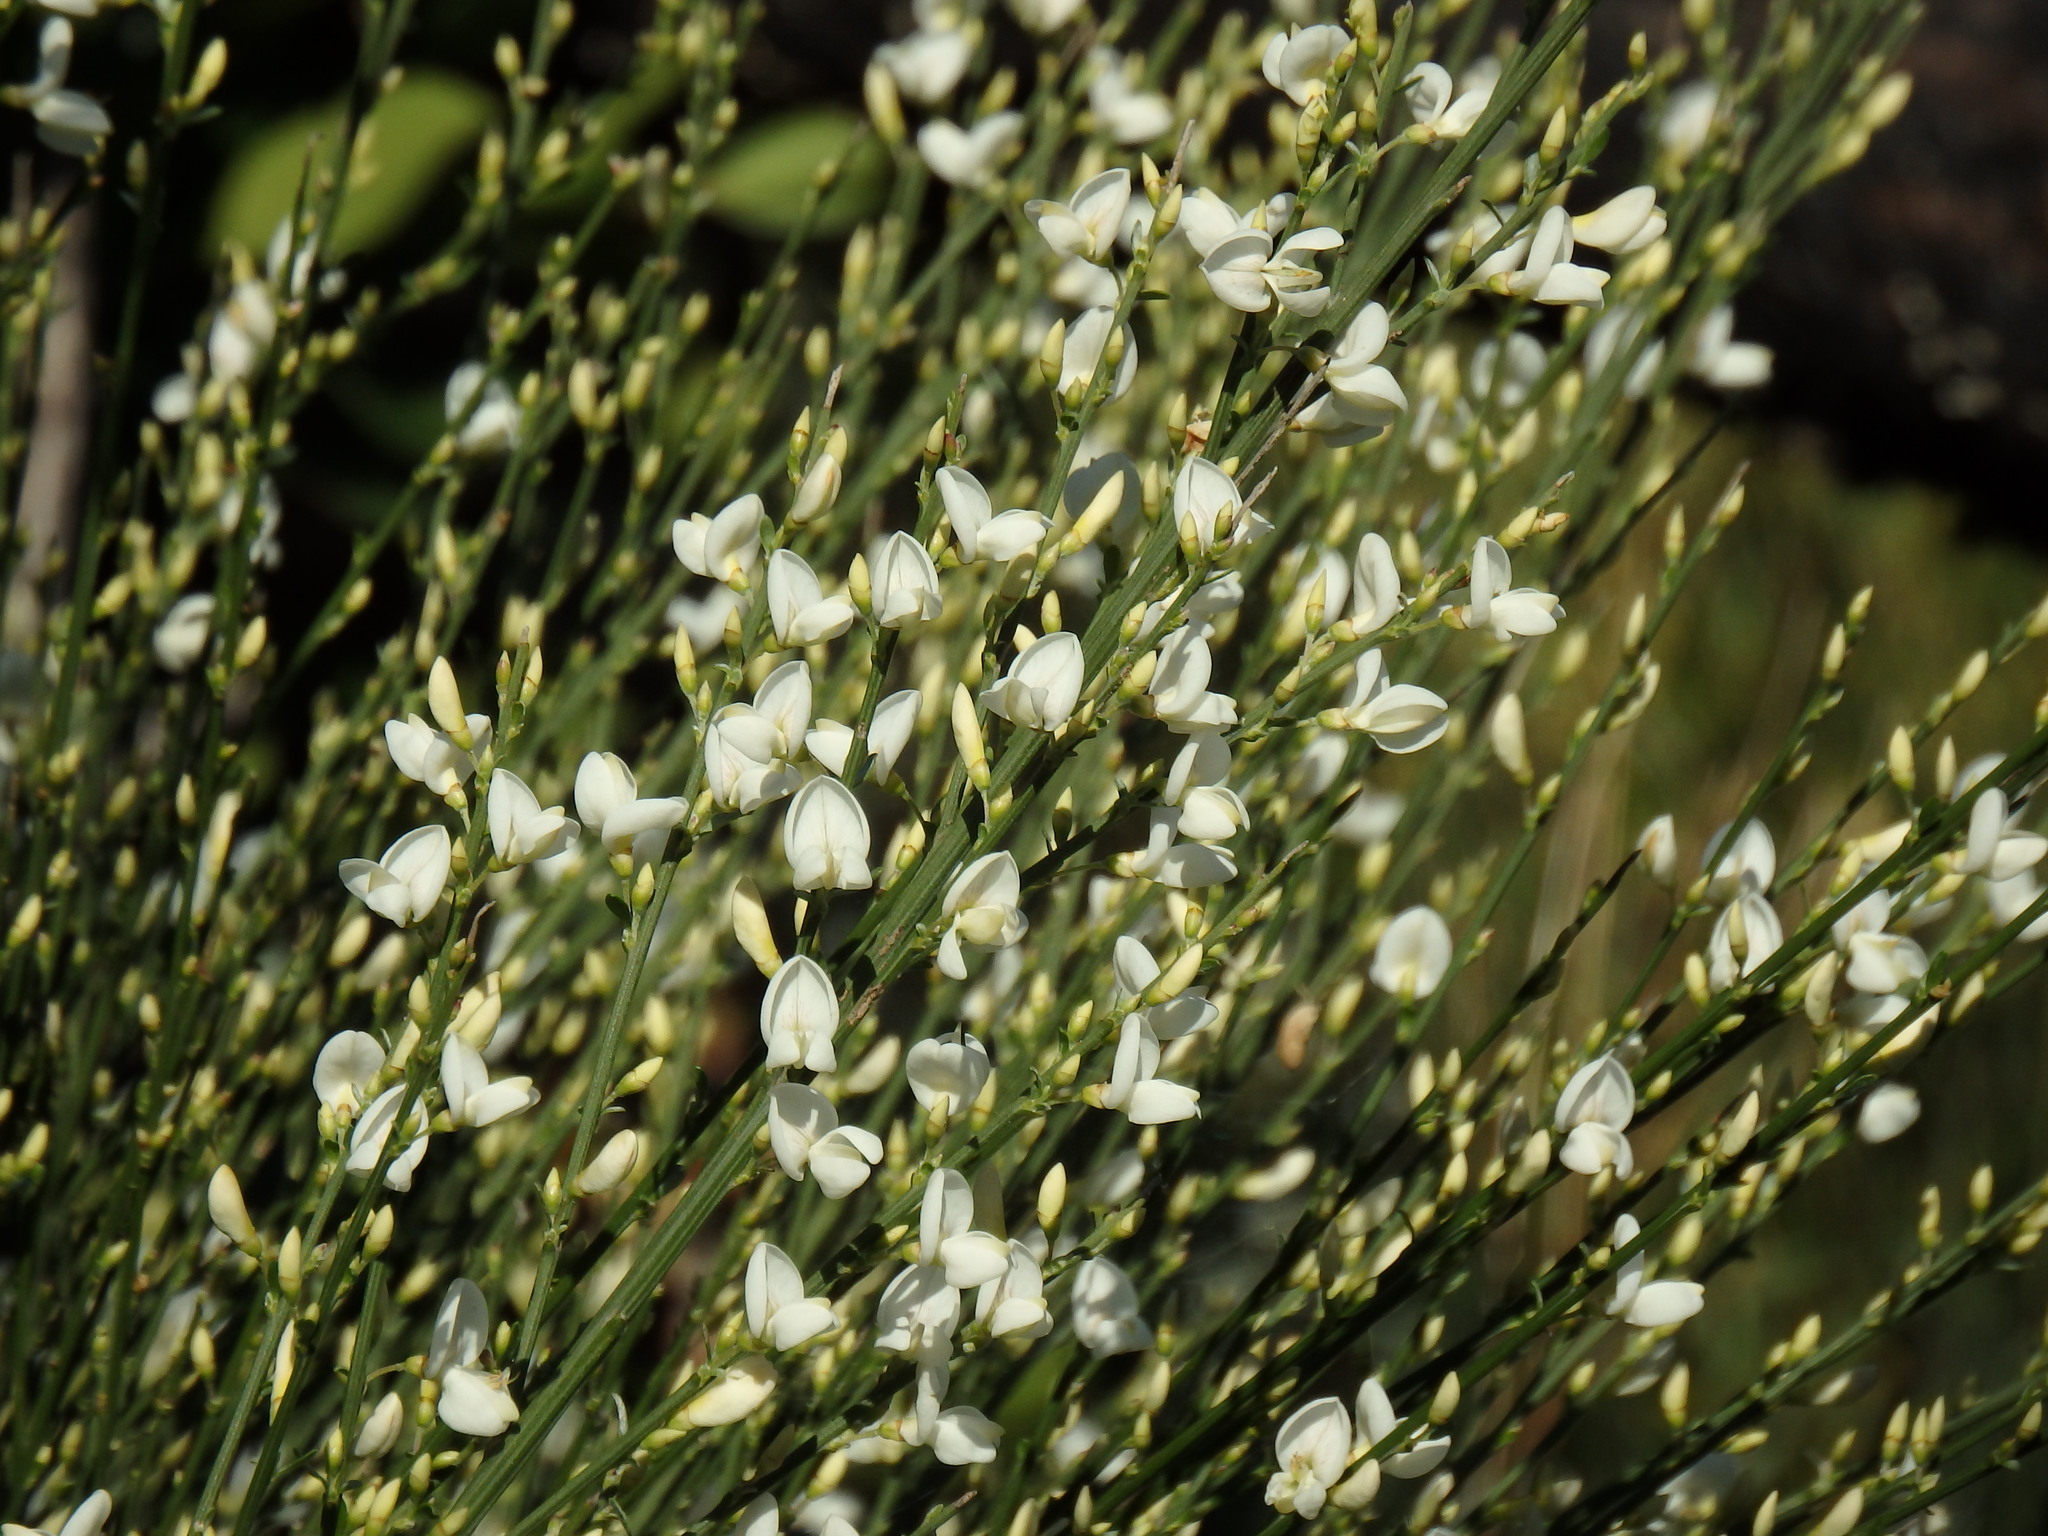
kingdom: Plantae
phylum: Tracheophyta
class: Magnoliopsida
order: Fabales
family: Fabaceae
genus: Cytisus
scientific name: Cytisus multiflorus
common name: White broom
